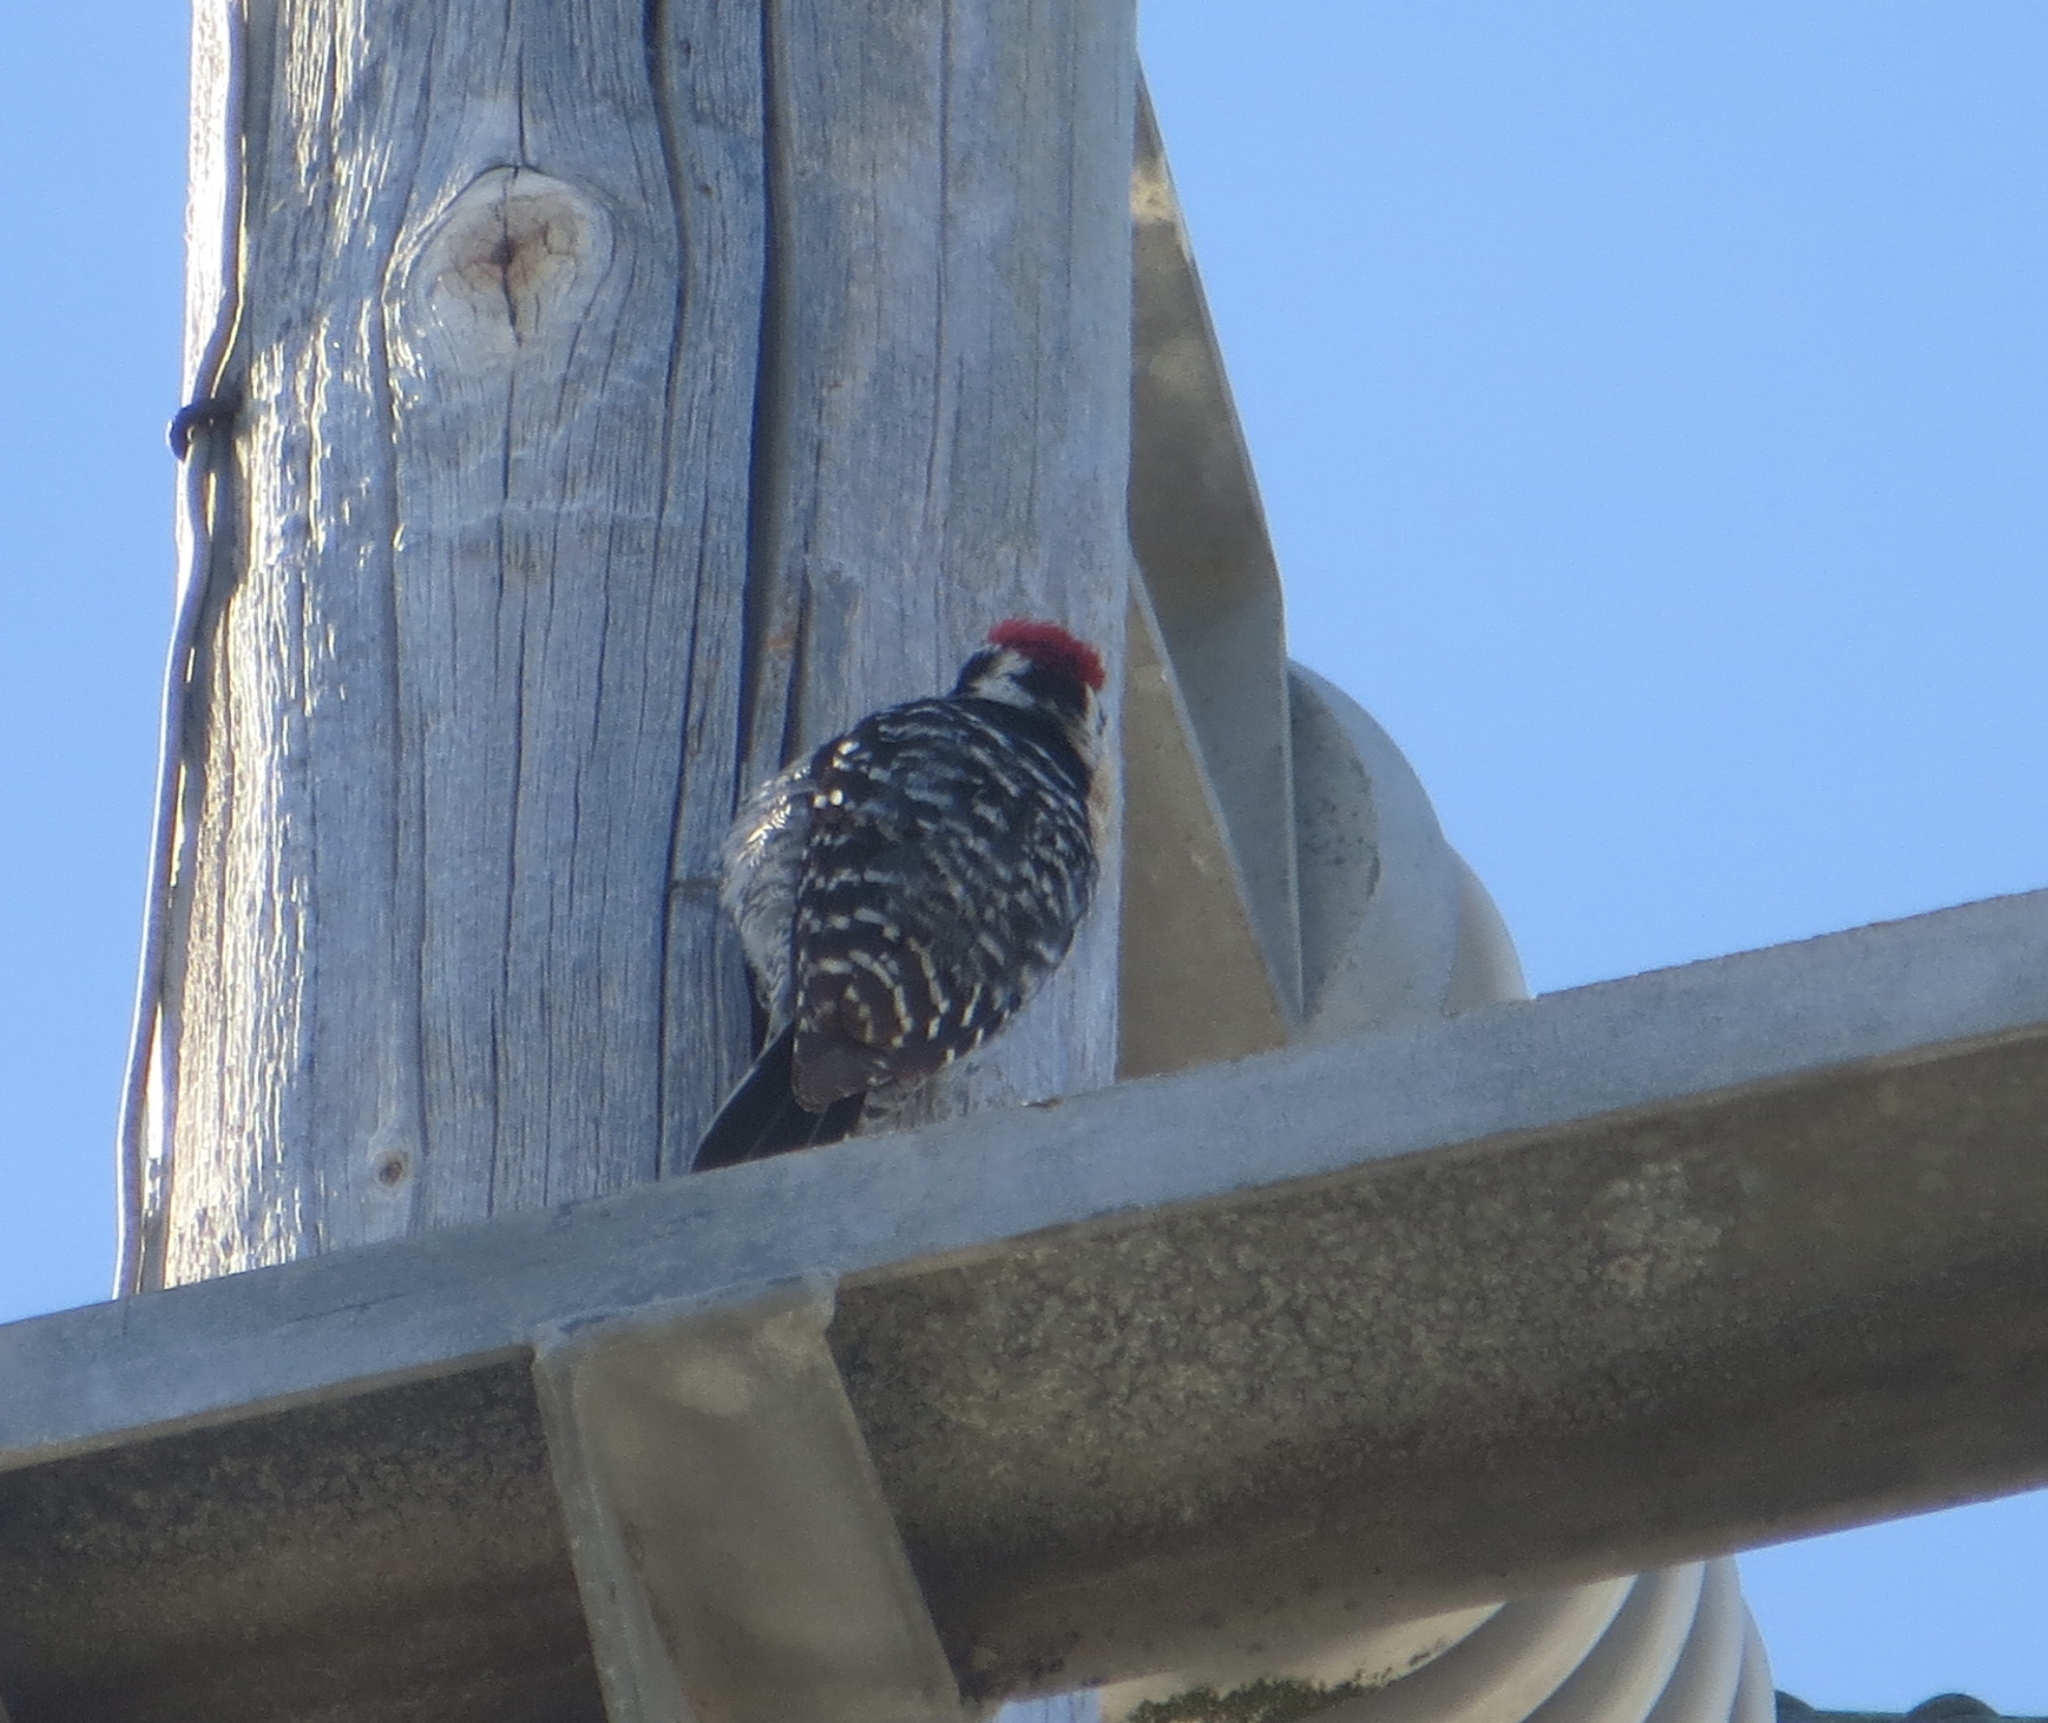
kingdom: Animalia
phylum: Chordata
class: Aves
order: Piciformes
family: Picidae
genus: Dryobates
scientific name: Dryobates nuttallii
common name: Nuttall's woodpecker
